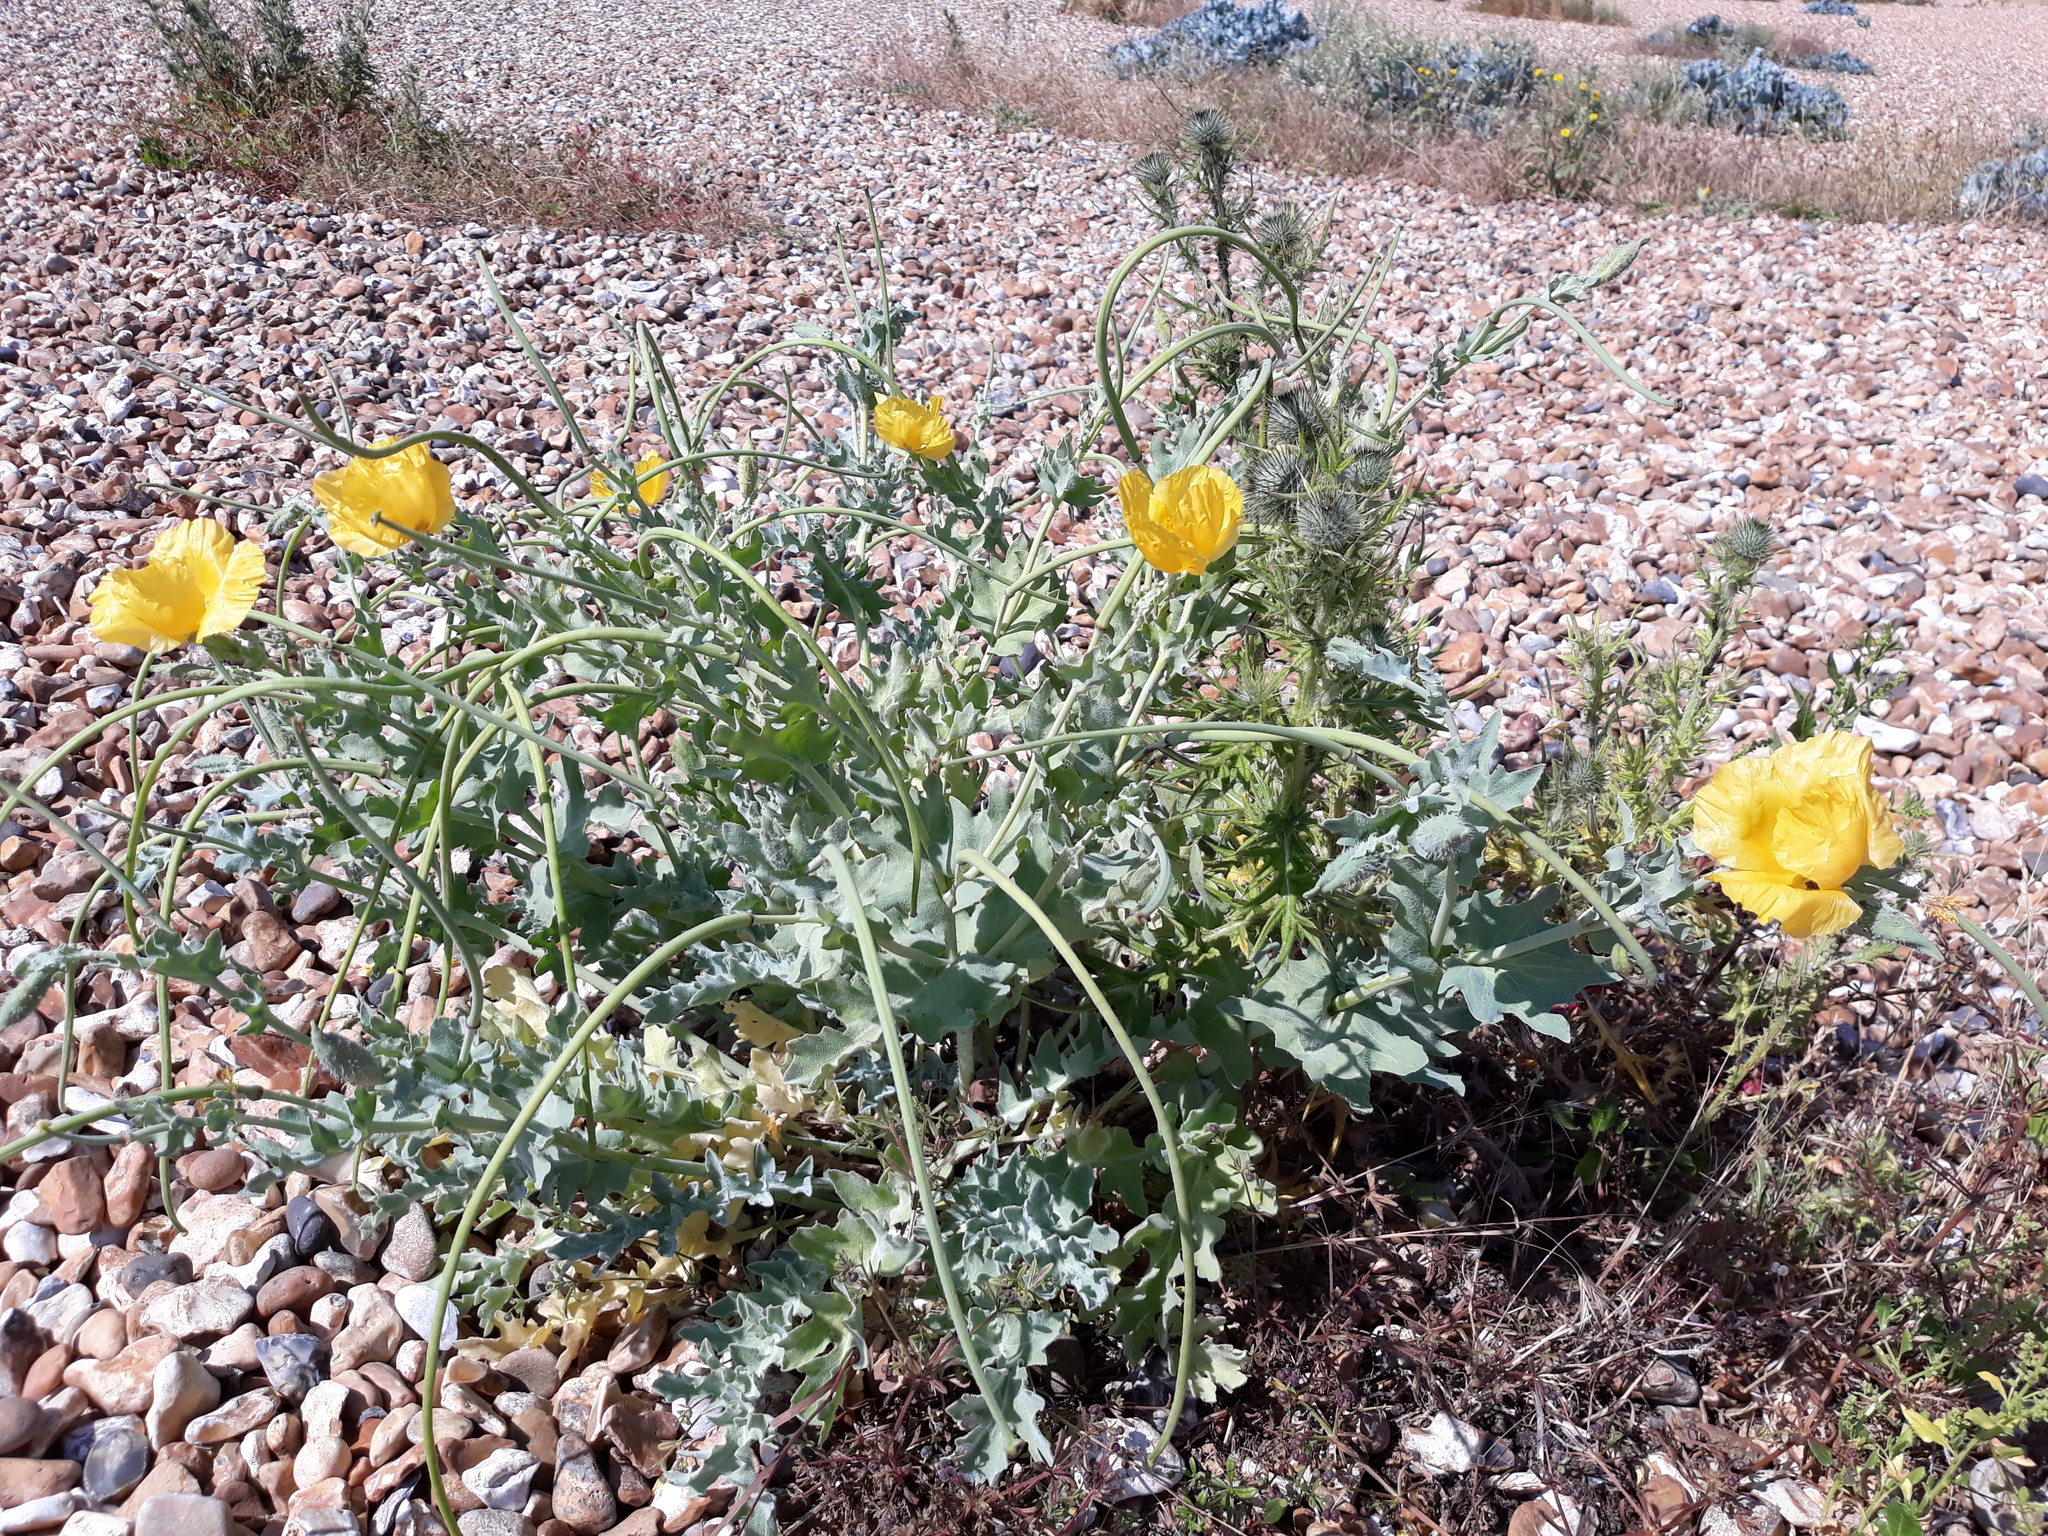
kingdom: Plantae
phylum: Tracheophyta
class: Magnoliopsida
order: Ranunculales
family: Papaveraceae
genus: Glaucium
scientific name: Glaucium flavum
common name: Yellow horned-poppy
